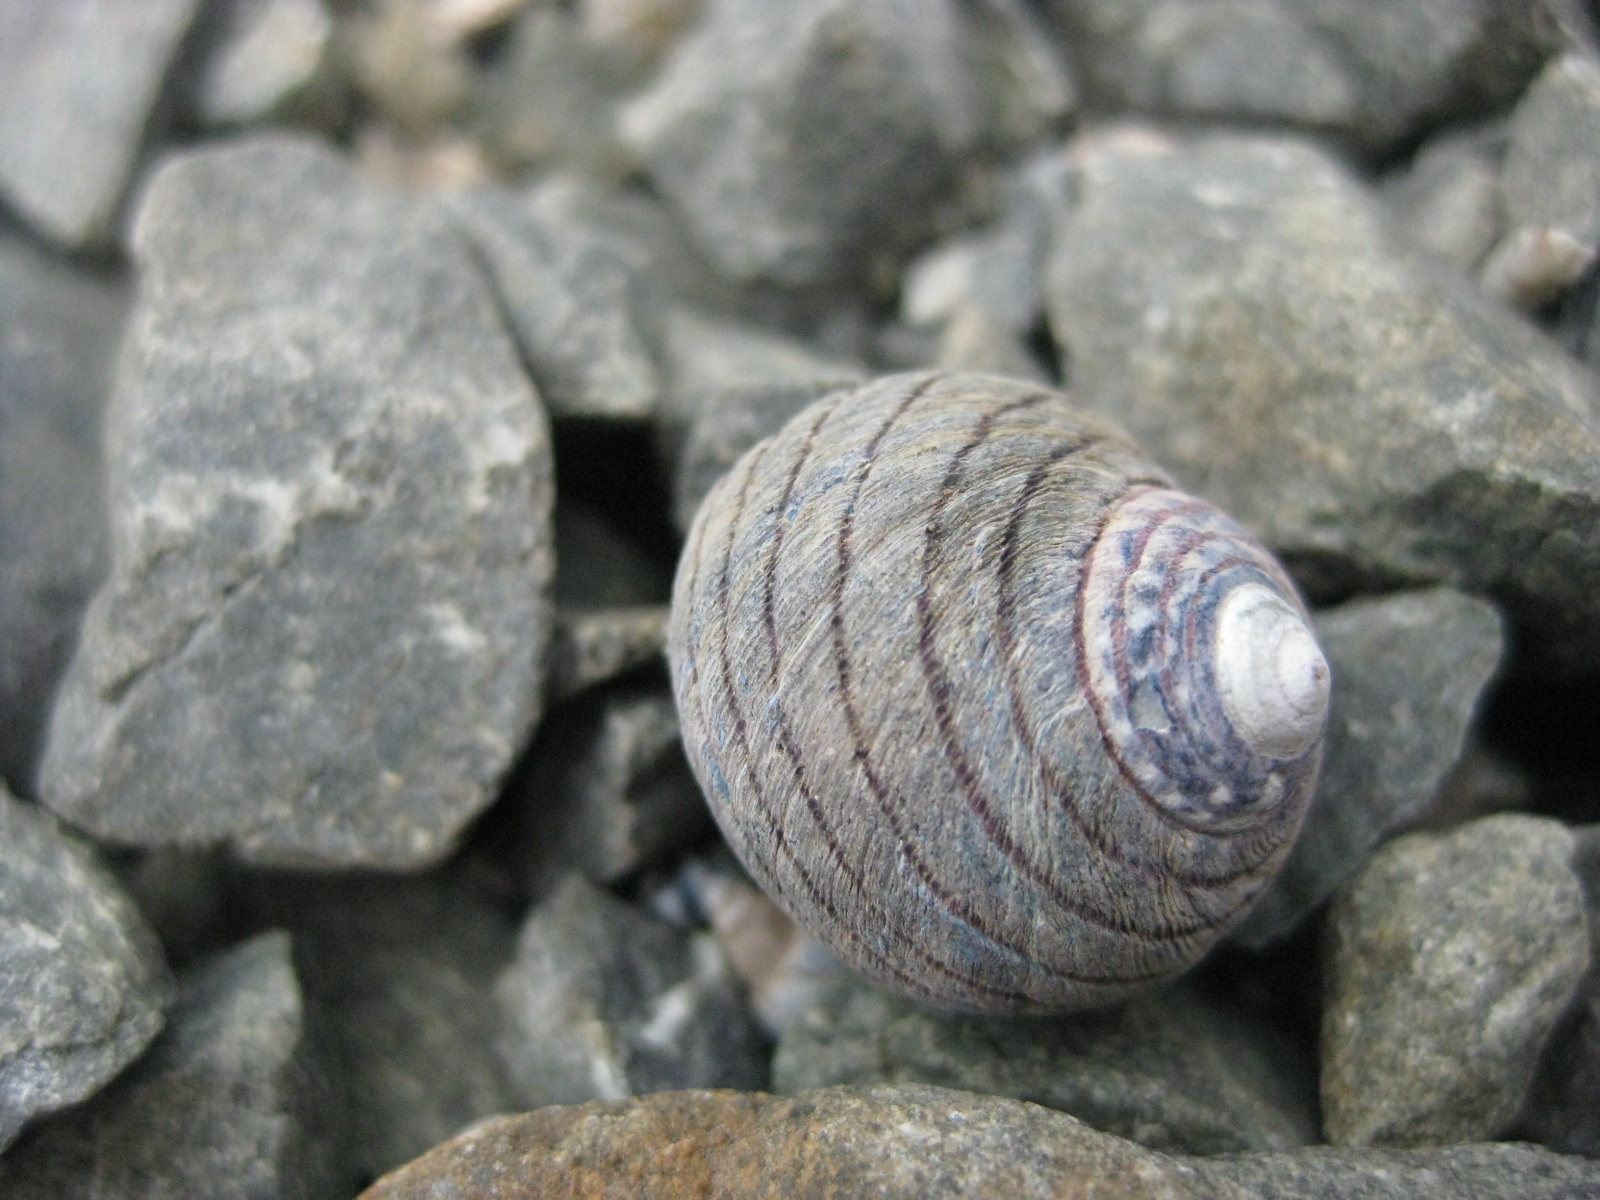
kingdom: Animalia
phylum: Mollusca
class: Gastropoda
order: Trochida
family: Trochidae
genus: Diloma
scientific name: Diloma aethiops
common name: Scorched monodont
